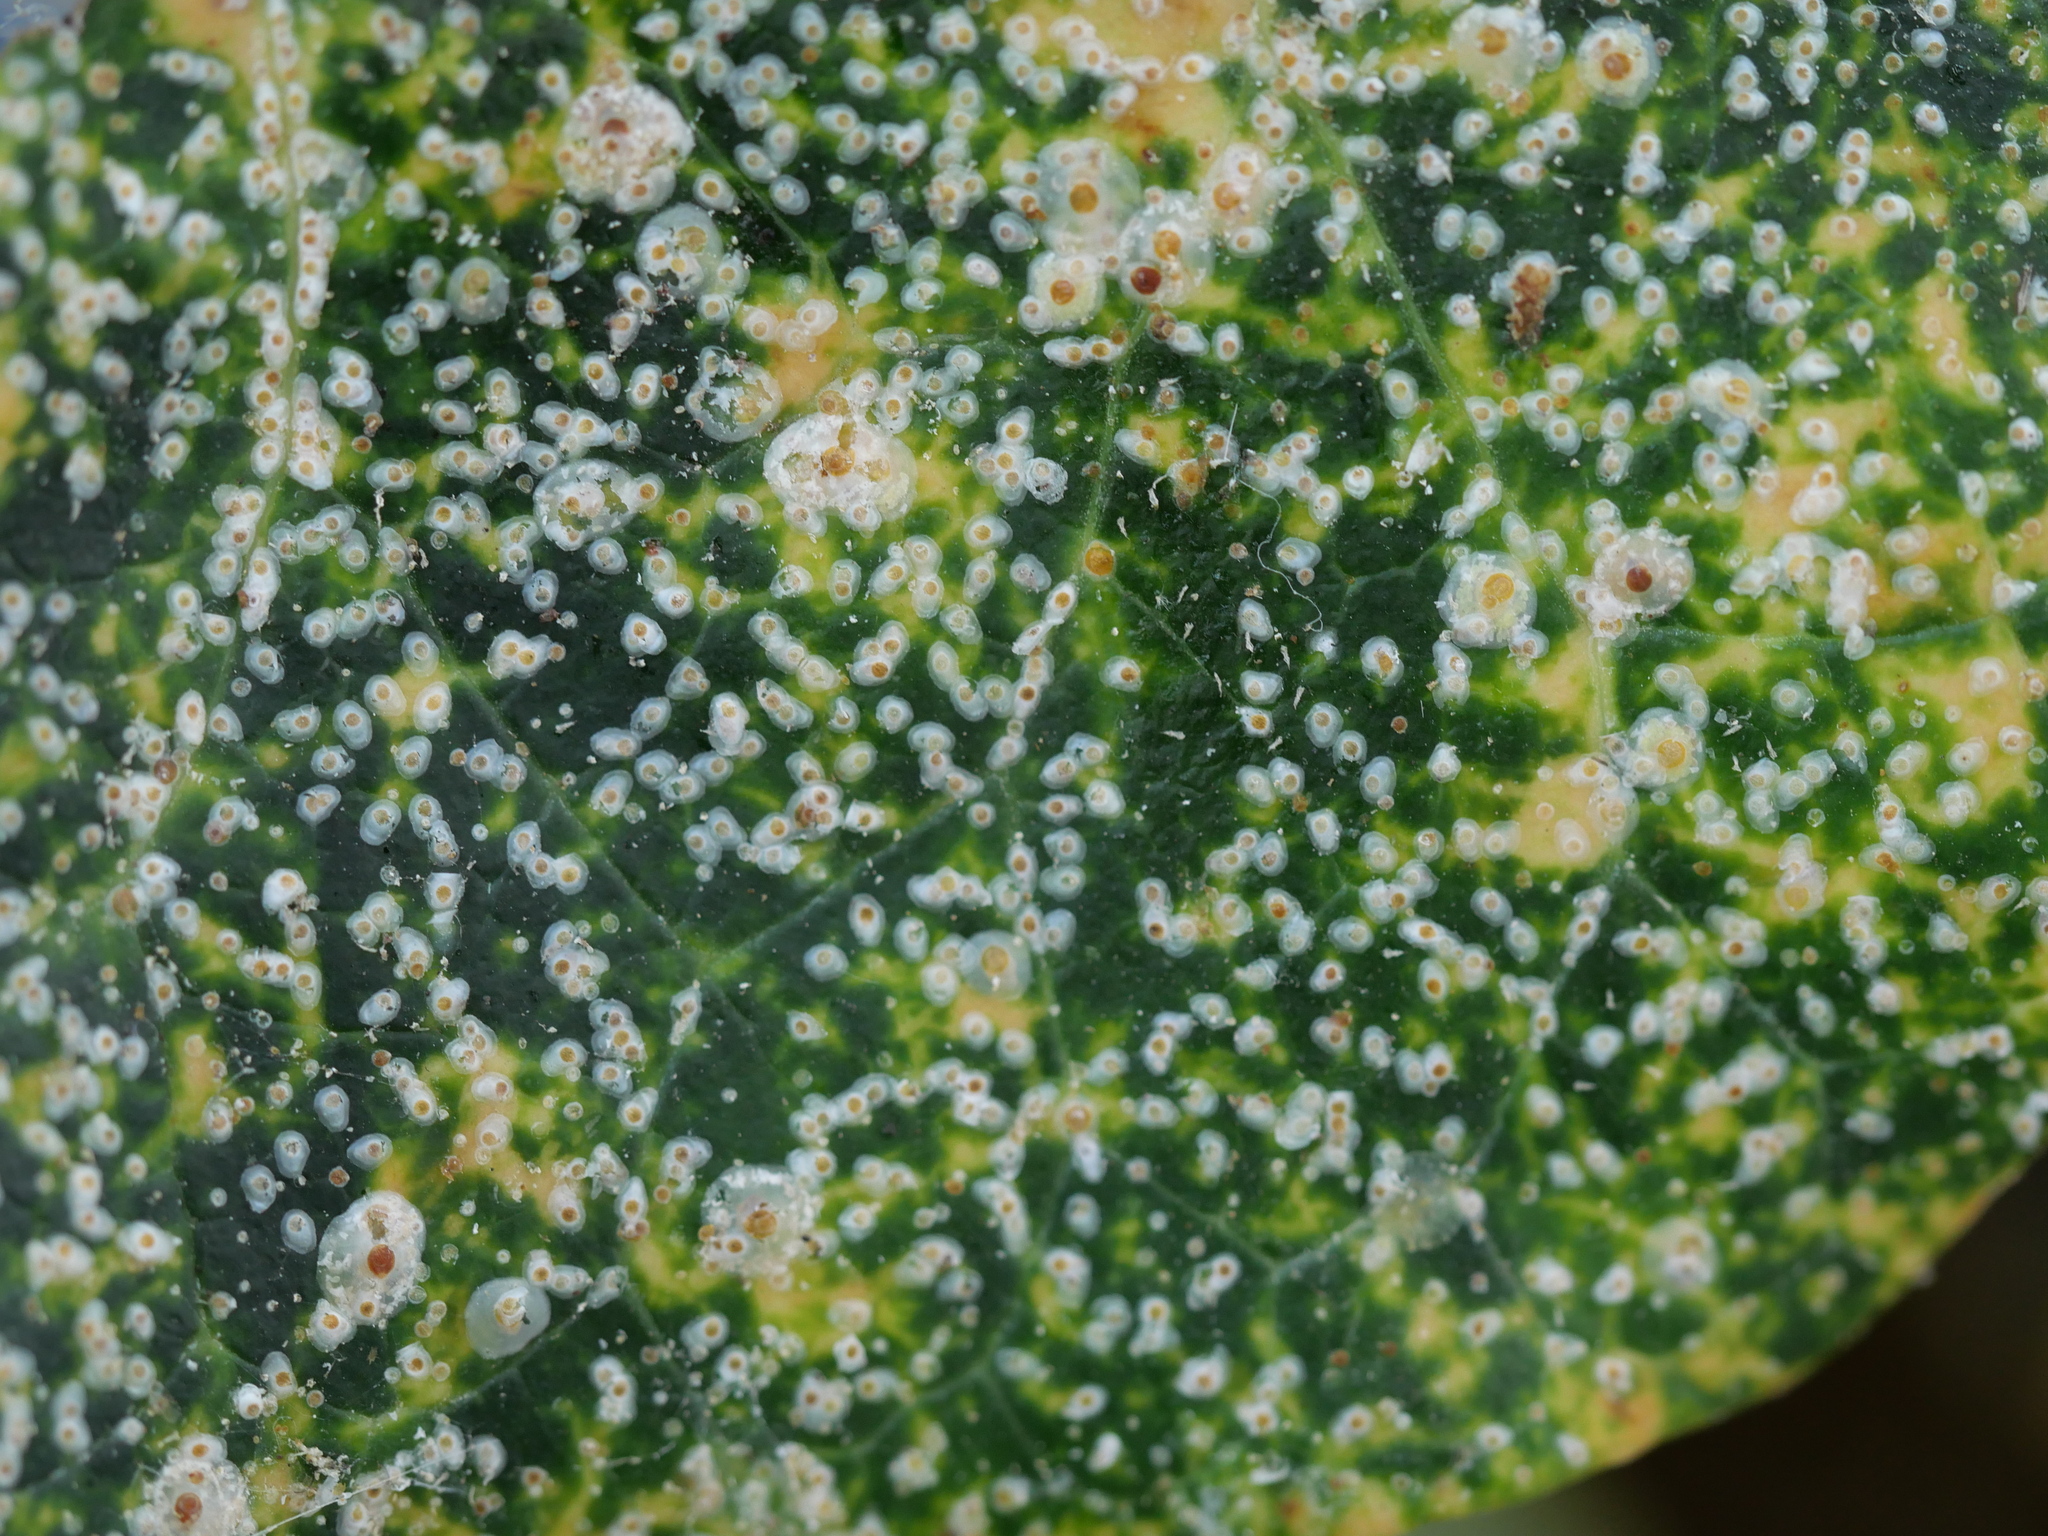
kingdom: Animalia
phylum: Arthropoda
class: Insecta
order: Hemiptera
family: Diaspididae
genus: Aspidiotus
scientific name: Aspidiotus hedericola
